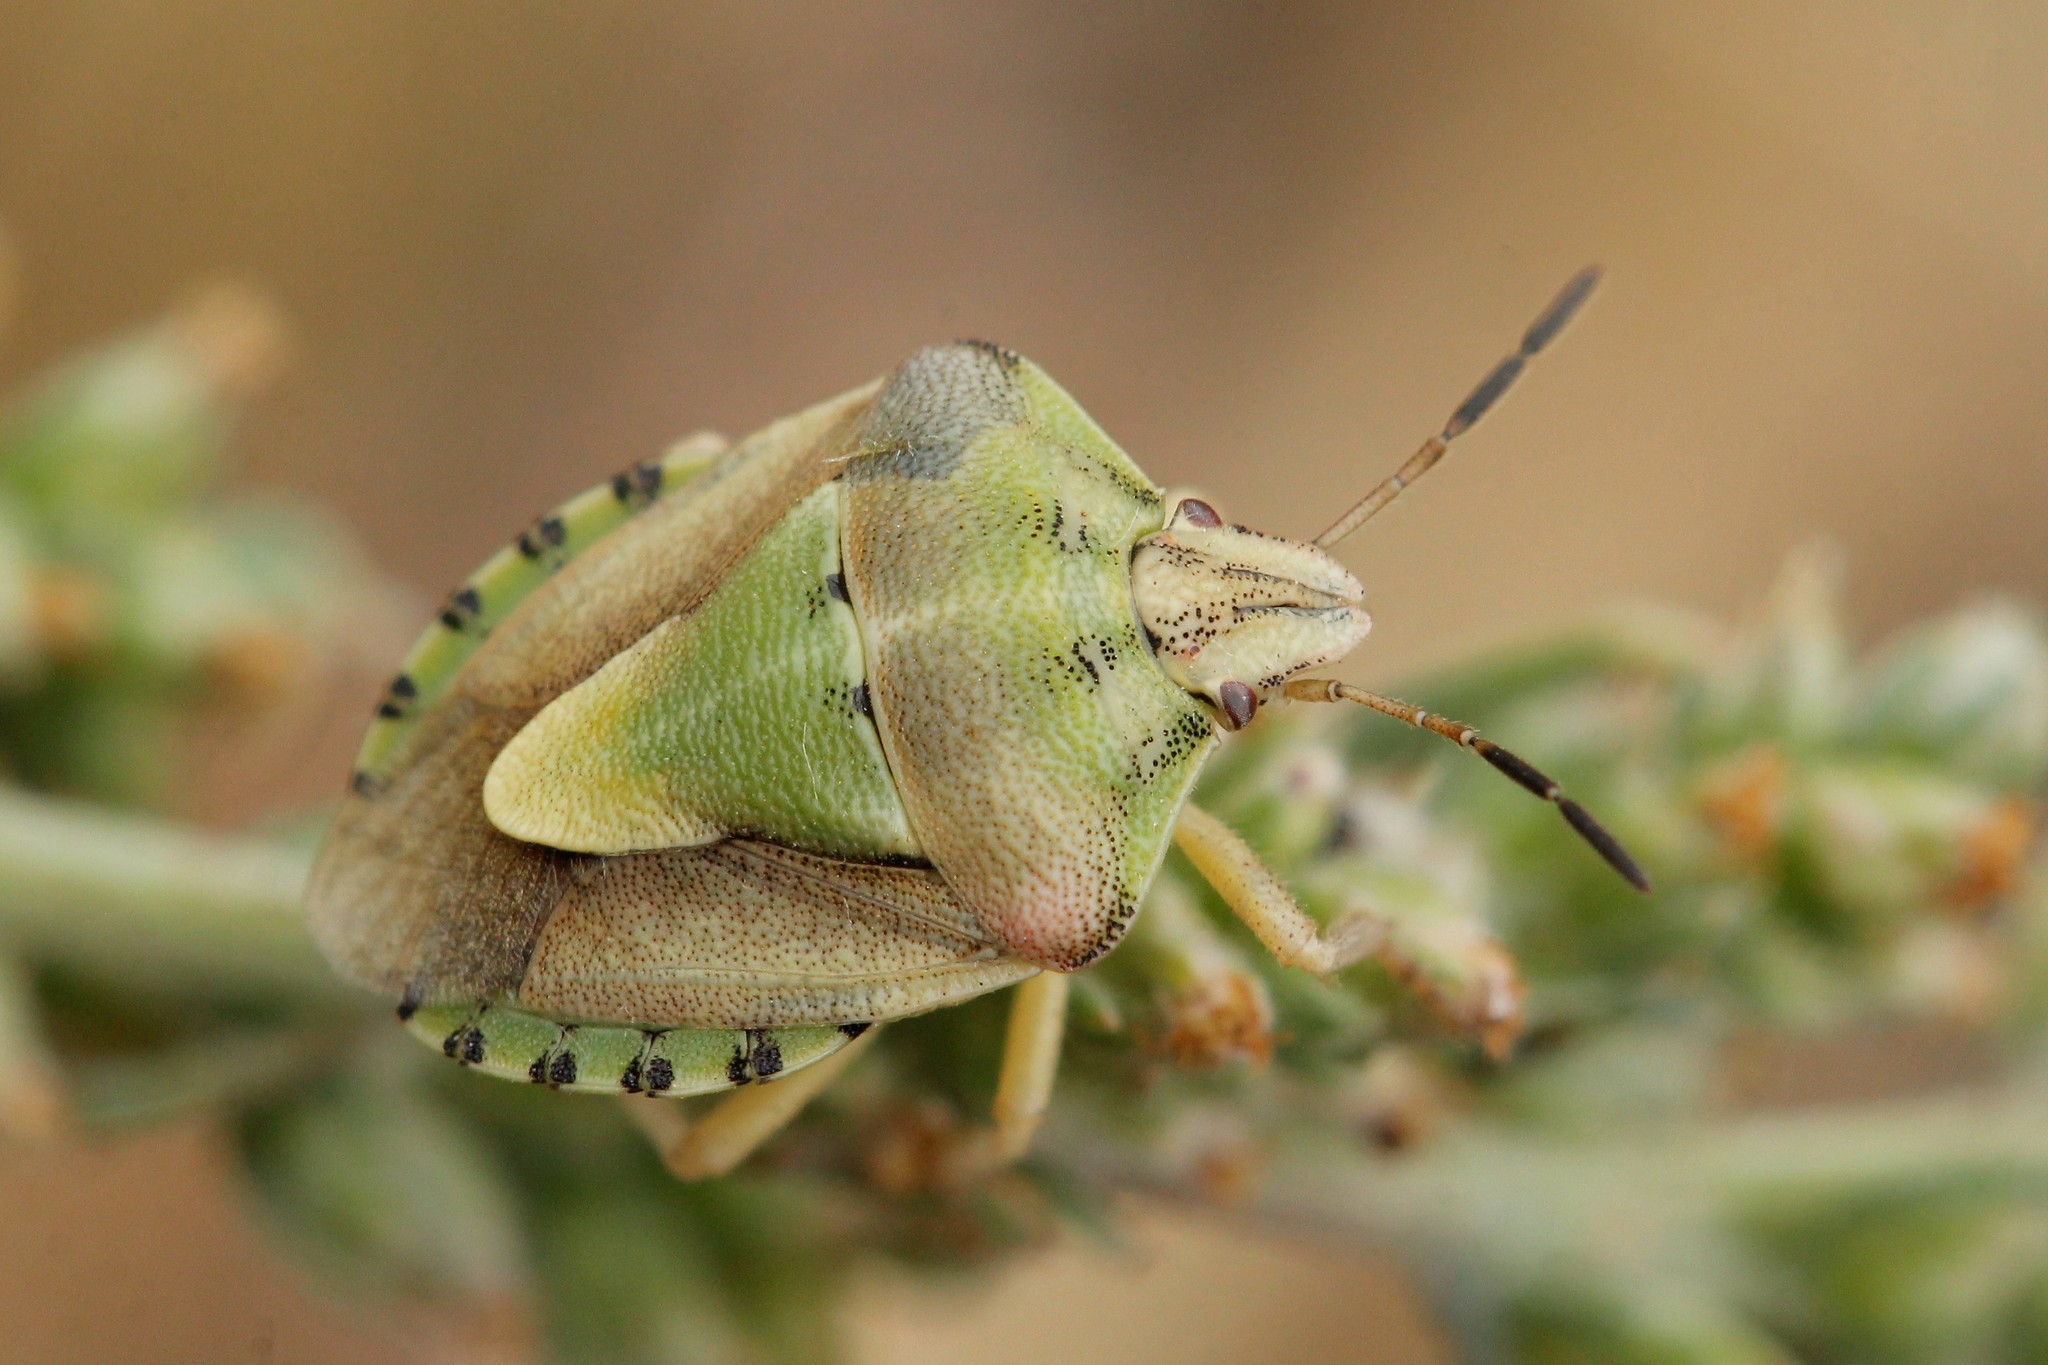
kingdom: Animalia
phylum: Arthropoda
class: Insecta
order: Hemiptera
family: Pentatomidae
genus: Antheminia
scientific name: Antheminia lunulata
